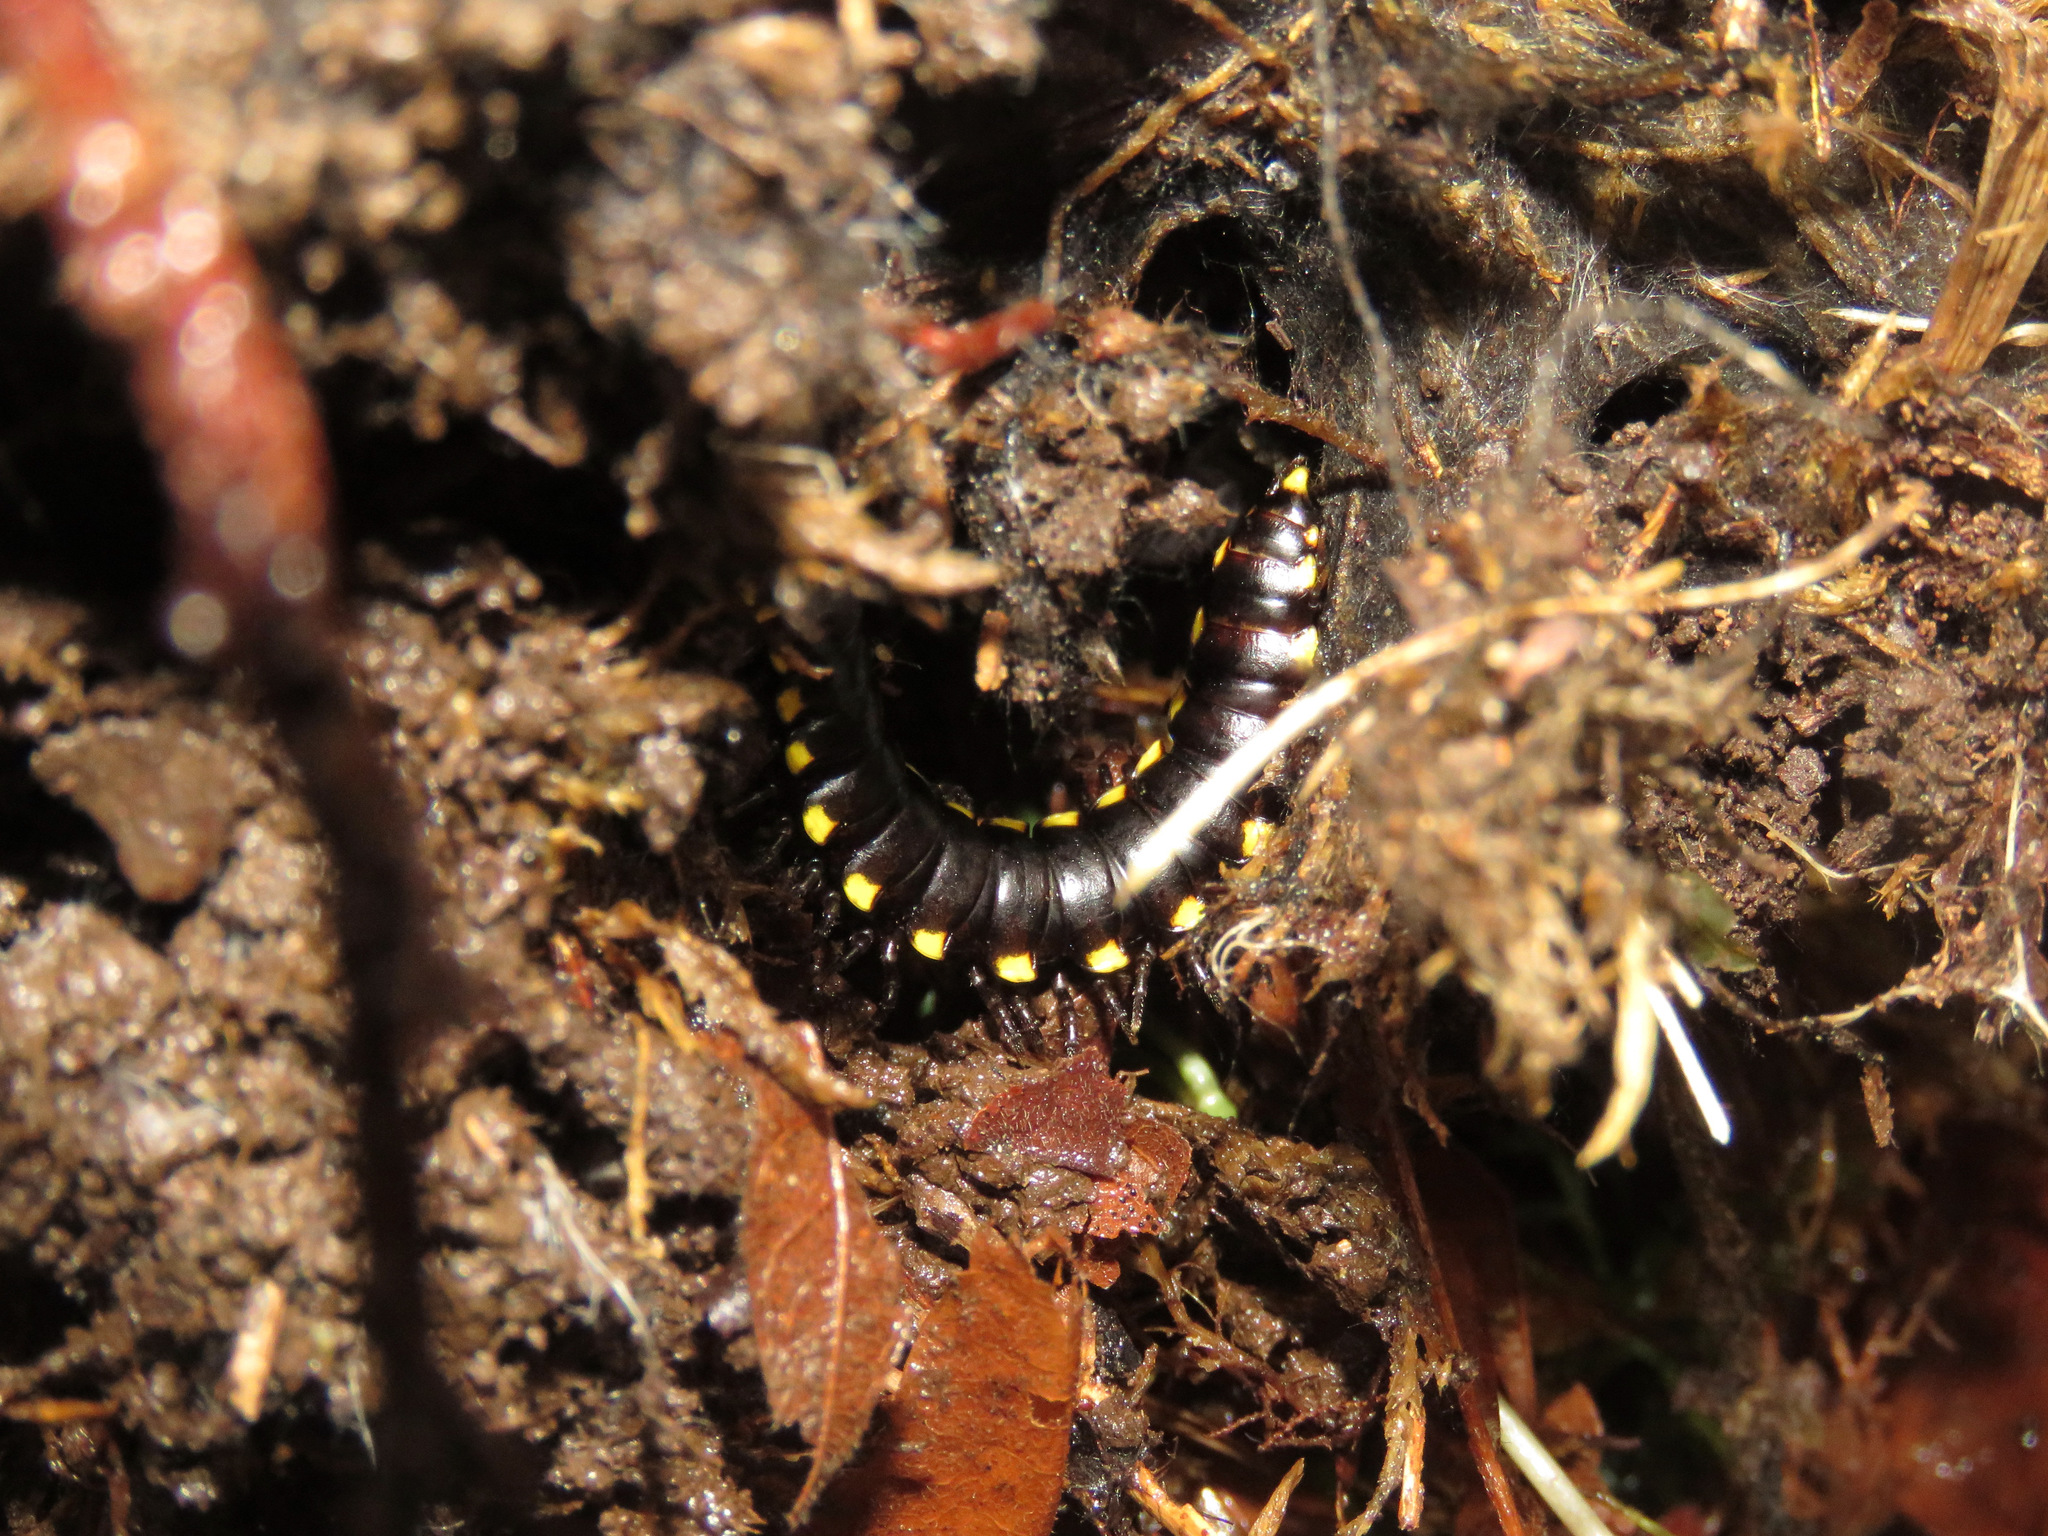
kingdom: Animalia
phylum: Arthropoda
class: Diplopoda
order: Polydesmida
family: Xystodesmidae
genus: Harpaphe
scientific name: Harpaphe haydeniana
